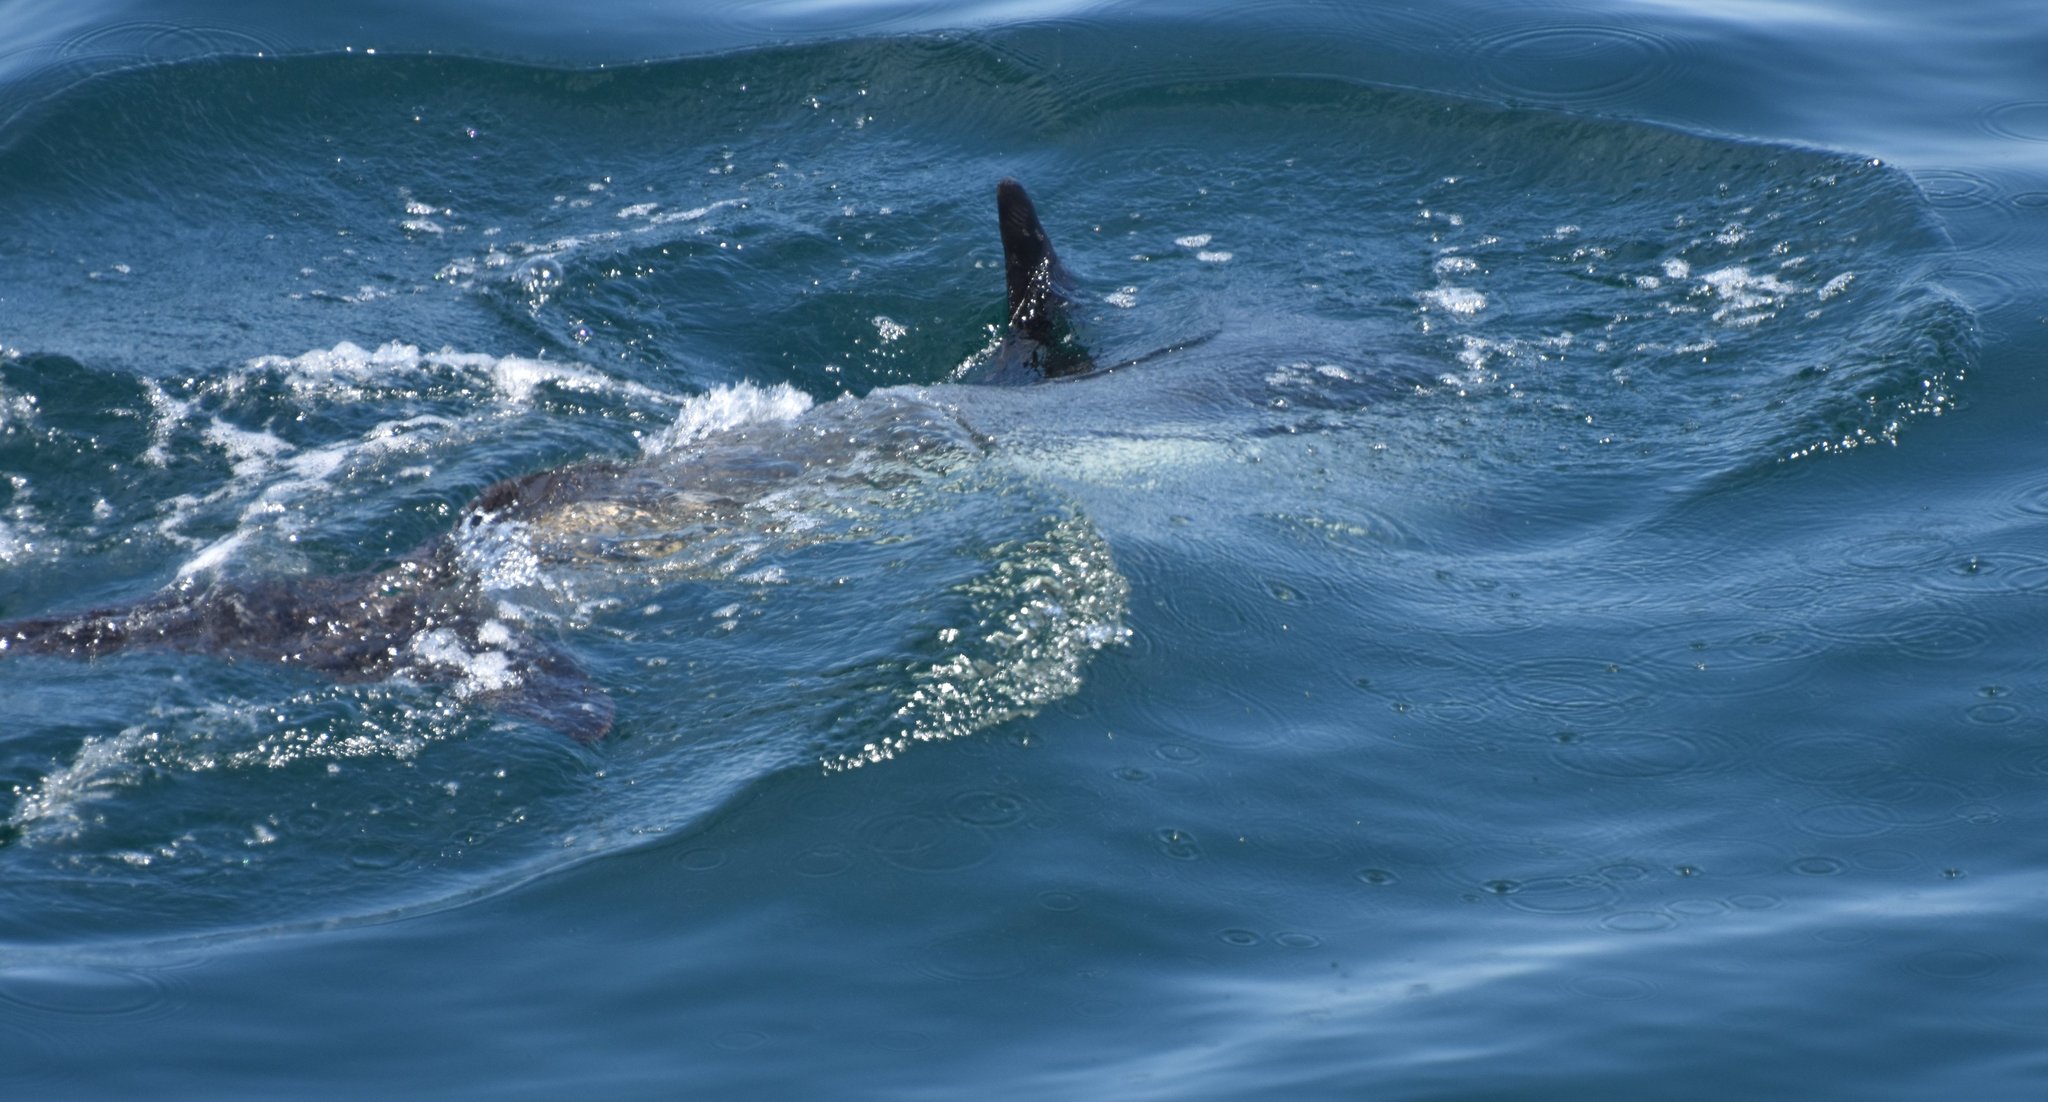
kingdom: Animalia
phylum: Chordata
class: Mammalia
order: Cetacea
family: Delphinidae
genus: Lagenorhynchus
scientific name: Lagenorhynchus acutus
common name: Atlantic white-sided dolphin
